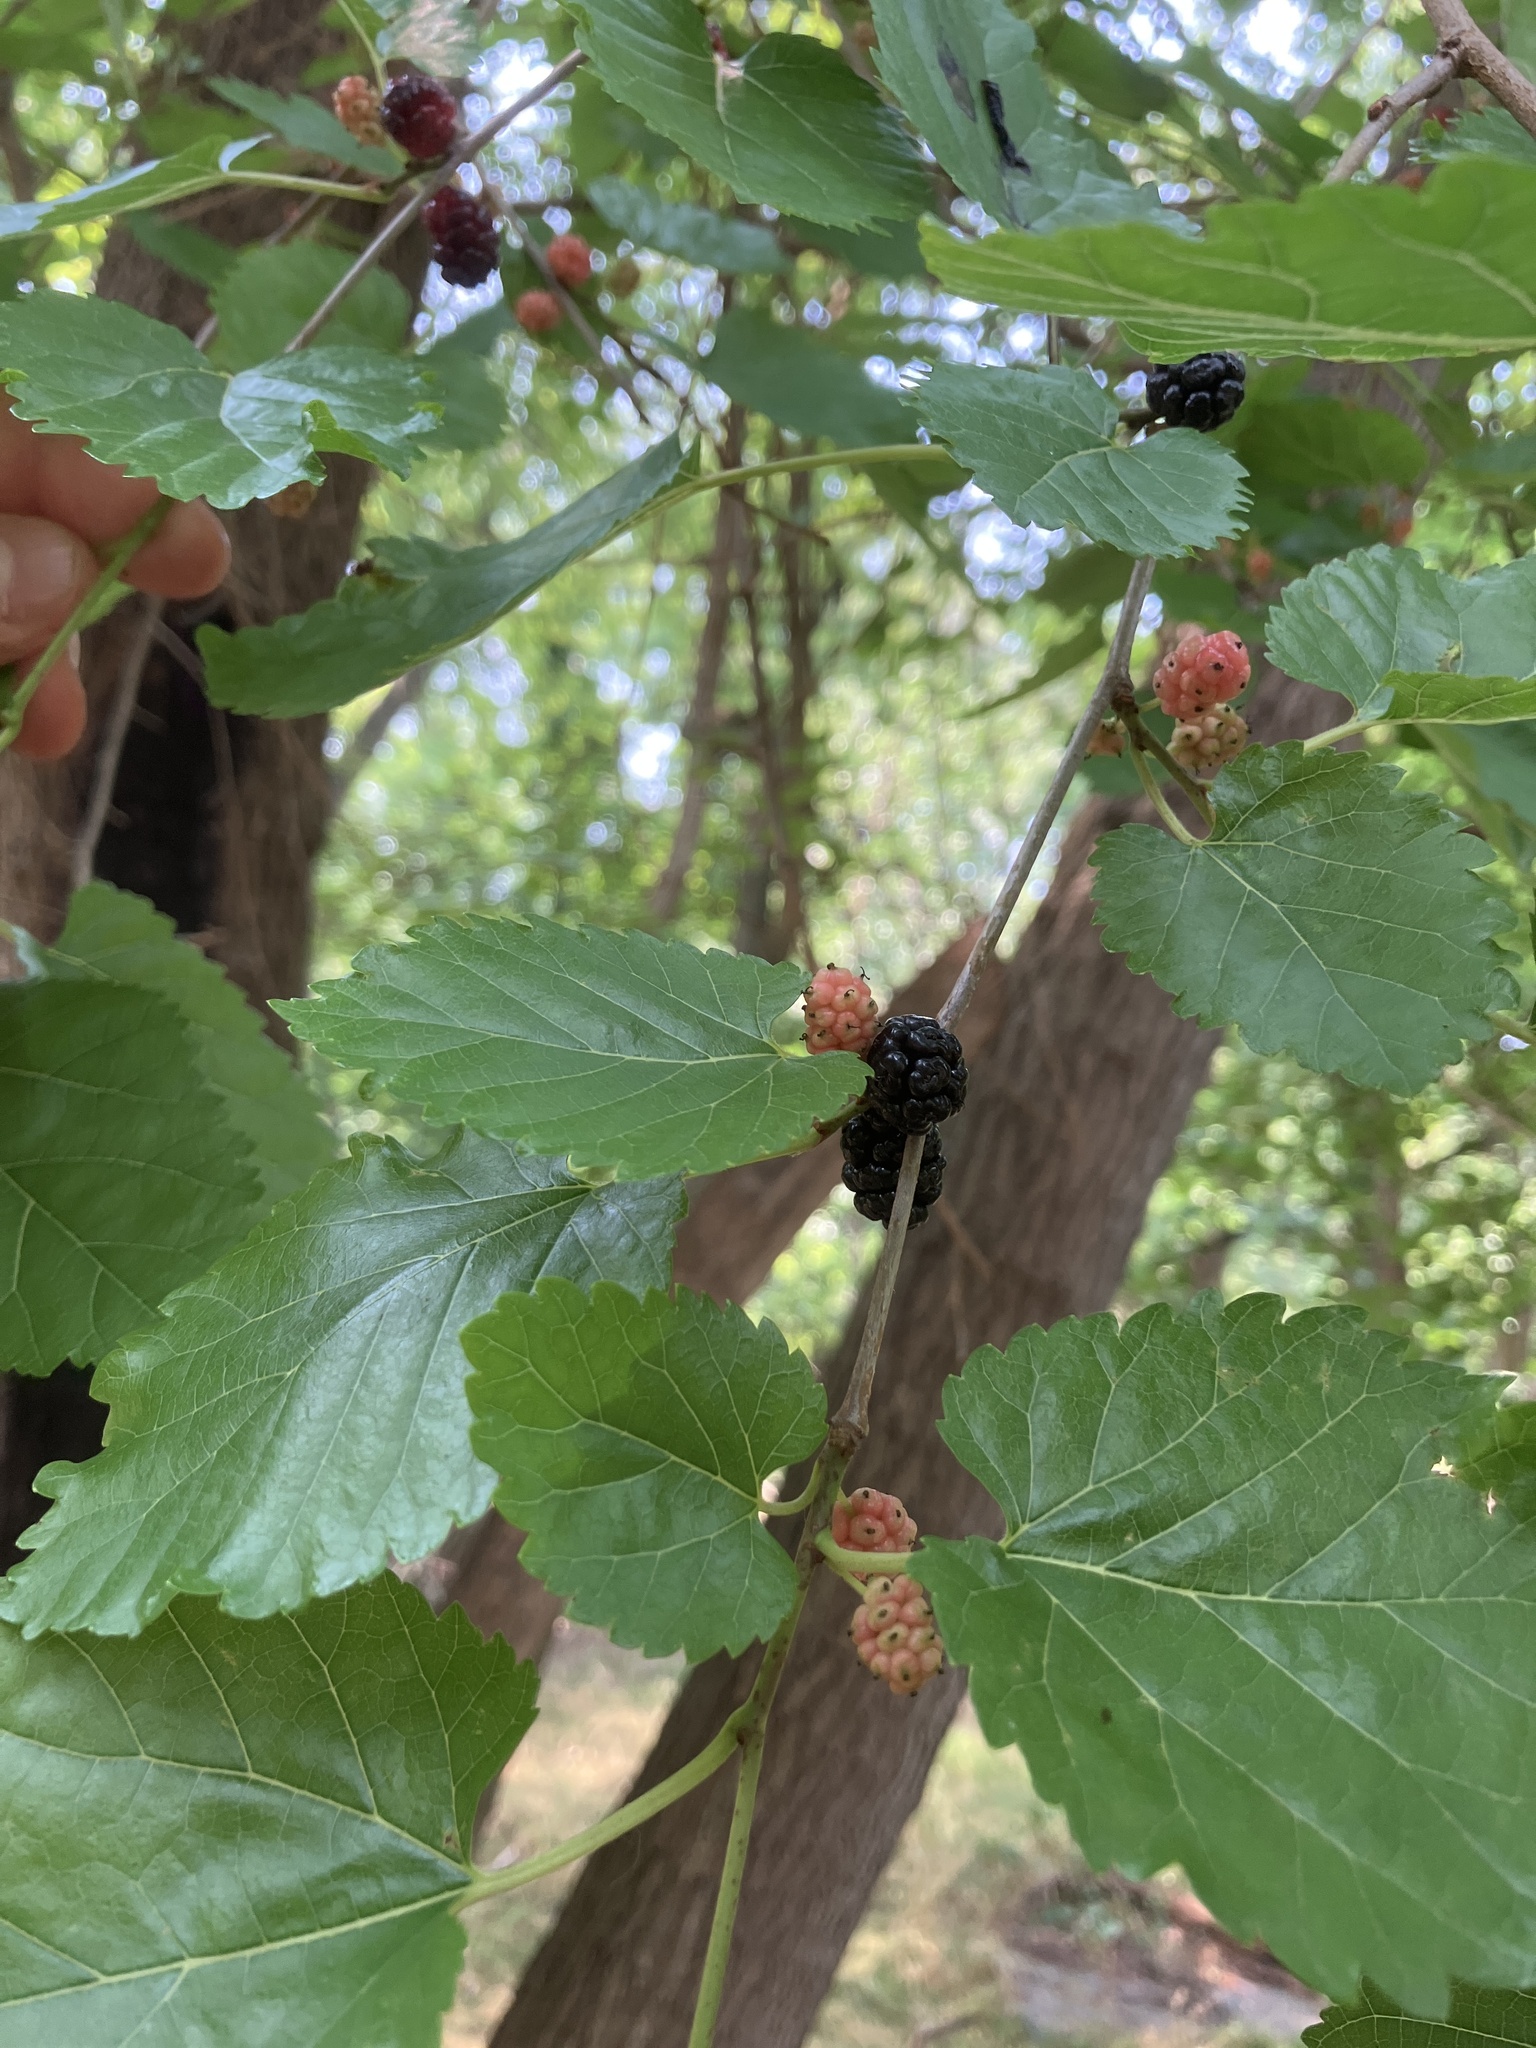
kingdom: Plantae
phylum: Tracheophyta
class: Magnoliopsida
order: Rosales
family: Moraceae
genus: Morus
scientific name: Morus nigra
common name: Black mulberry
